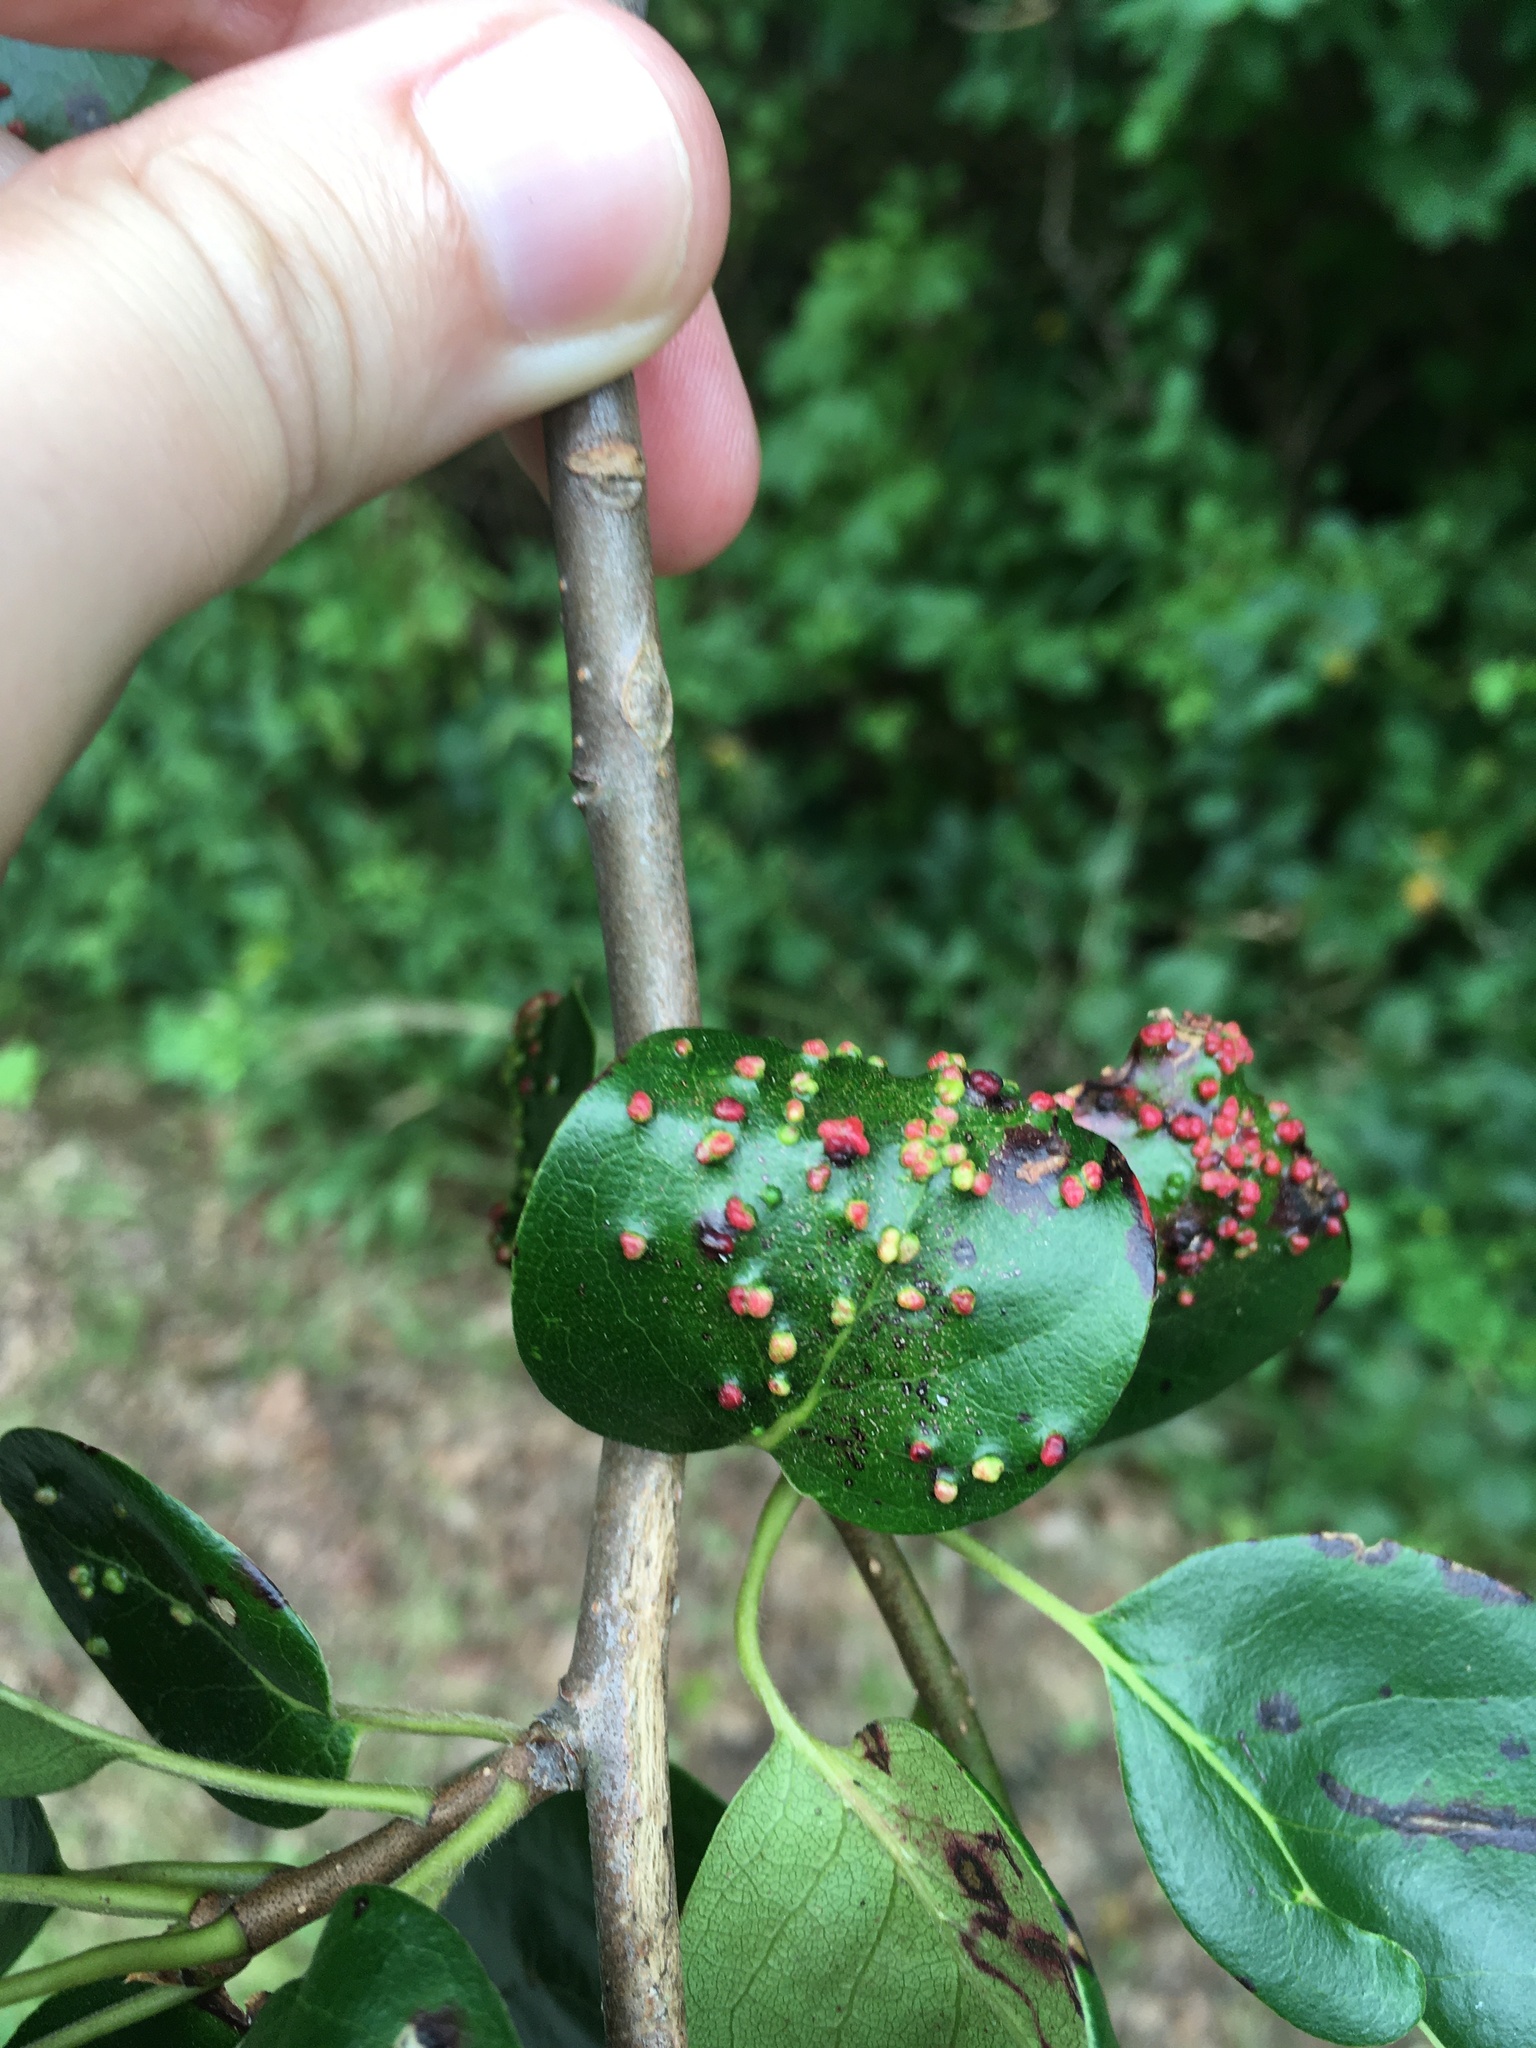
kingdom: Animalia
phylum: Arthropoda
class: Arachnida
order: Trombidiformes
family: Eriophyidae
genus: Aceria
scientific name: Aceria
